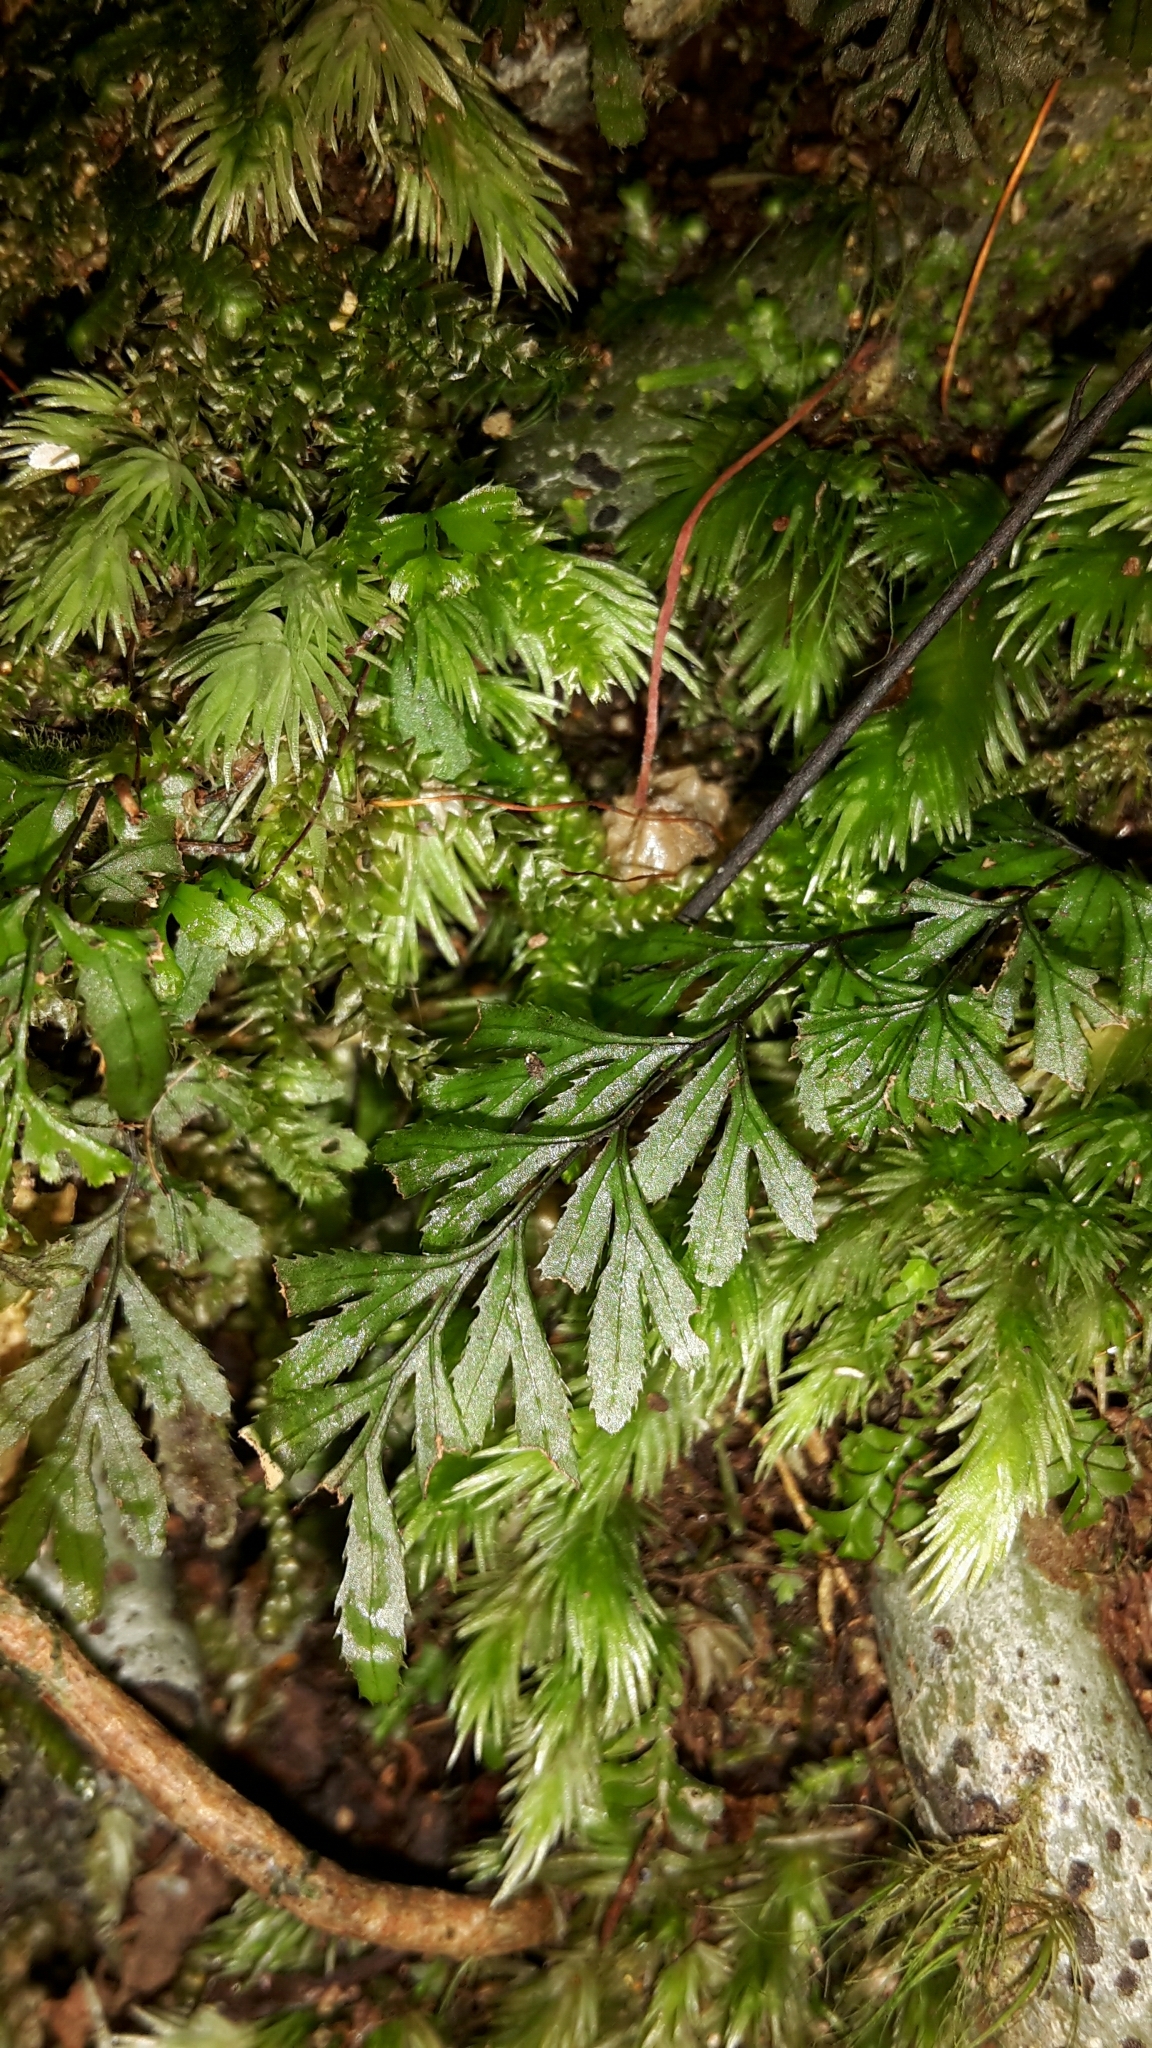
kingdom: Plantae
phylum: Tracheophyta
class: Polypodiopsida
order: Hymenophyllales
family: Hymenophyllaceae
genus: Hymenophyllum
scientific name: Hymenophyllum revolutum
